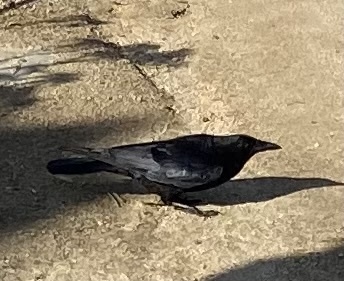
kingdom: Animalia
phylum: Chordata
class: Aves
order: Passeriformes
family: Corvidae
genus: Corvus
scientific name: Corvus brachyrhynchos
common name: American crow
